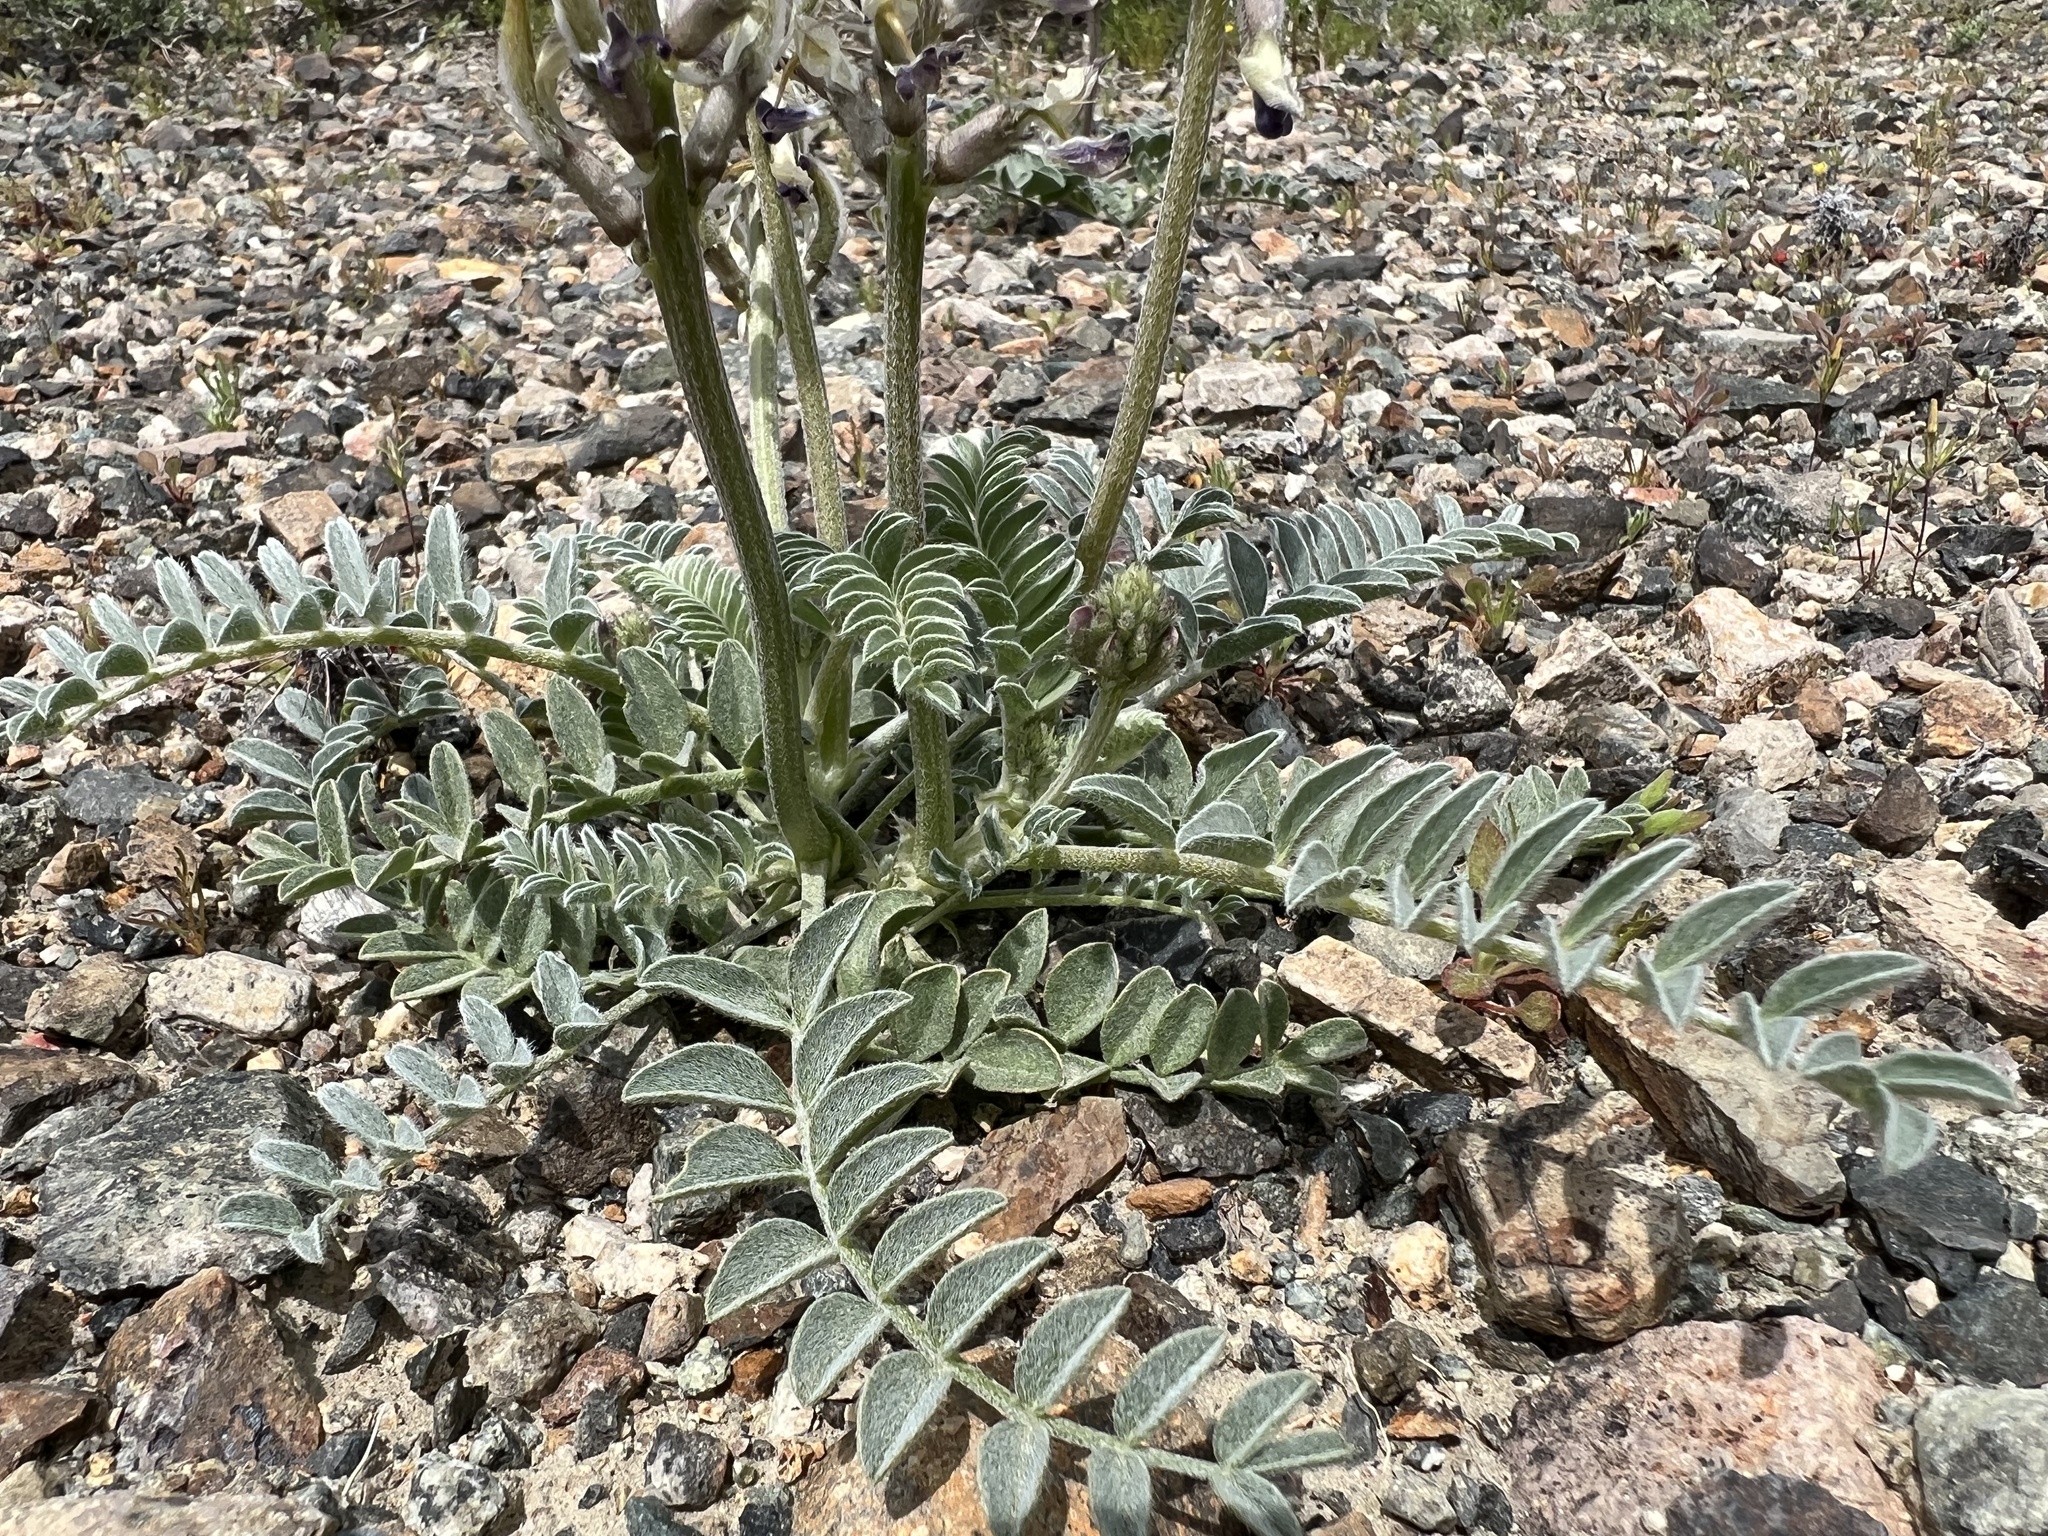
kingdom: Plantae
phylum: Tracheophyta
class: Magnoliopsida
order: Fabales
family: Fabaceae
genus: Astragalus
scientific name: Astragalus layneae
